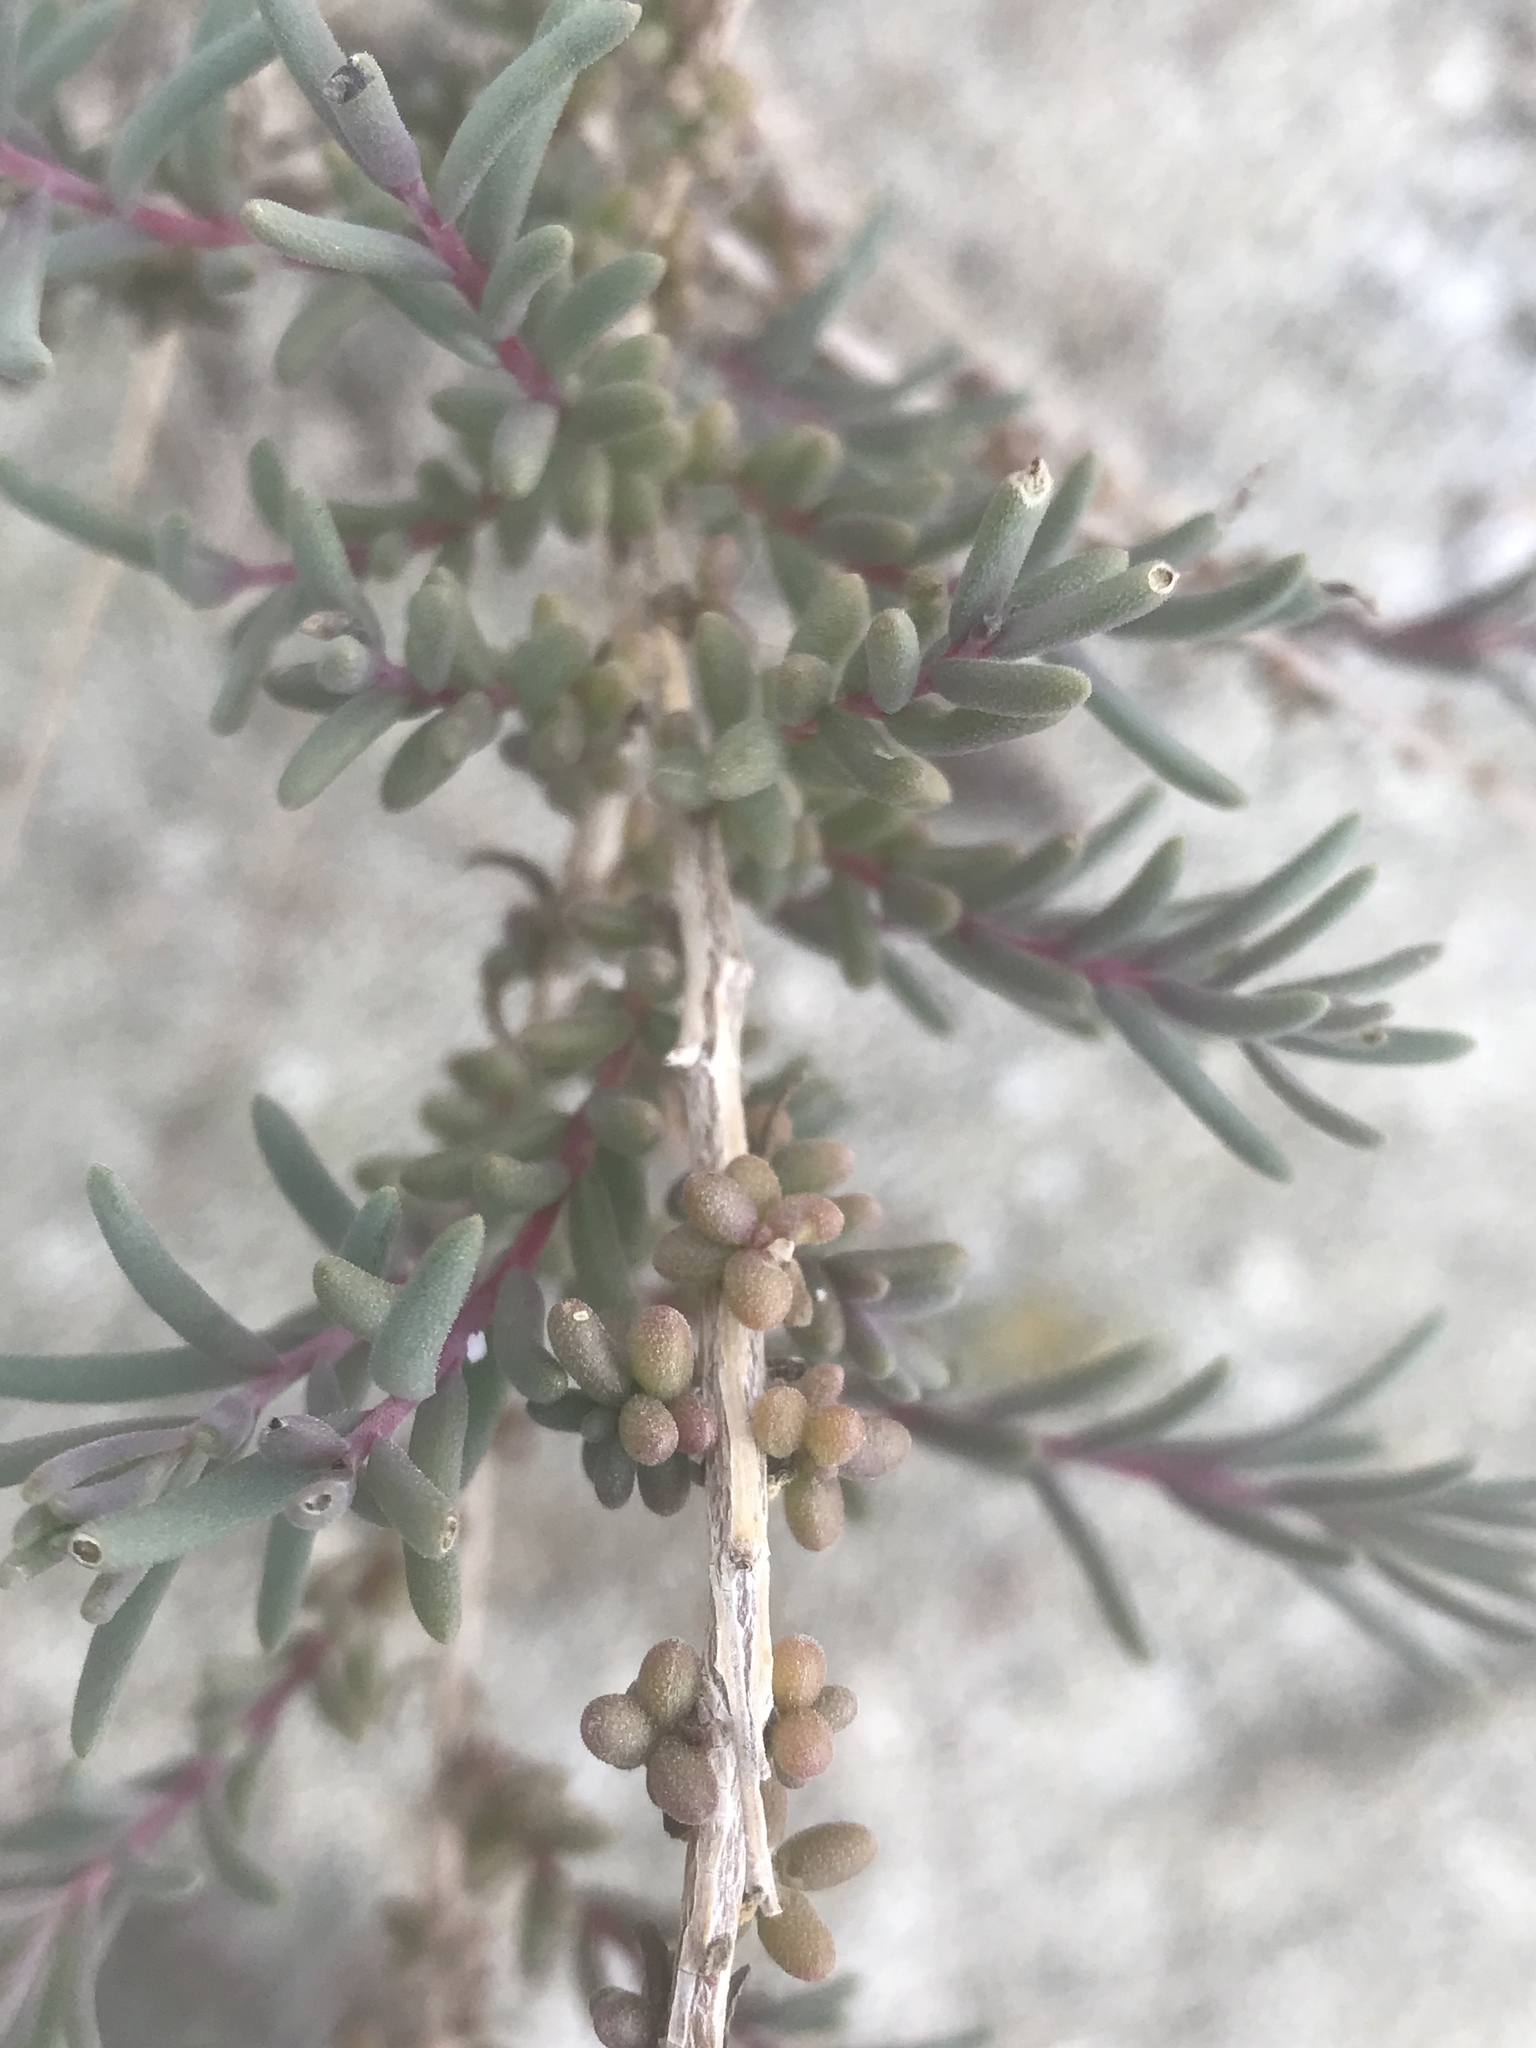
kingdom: Plantae
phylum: Tracheophyta
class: Magnoliopsida
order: Caryophyllales
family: Amaranthaceae
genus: Suaeda
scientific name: Suaeda nigra
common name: Bush seepweed
